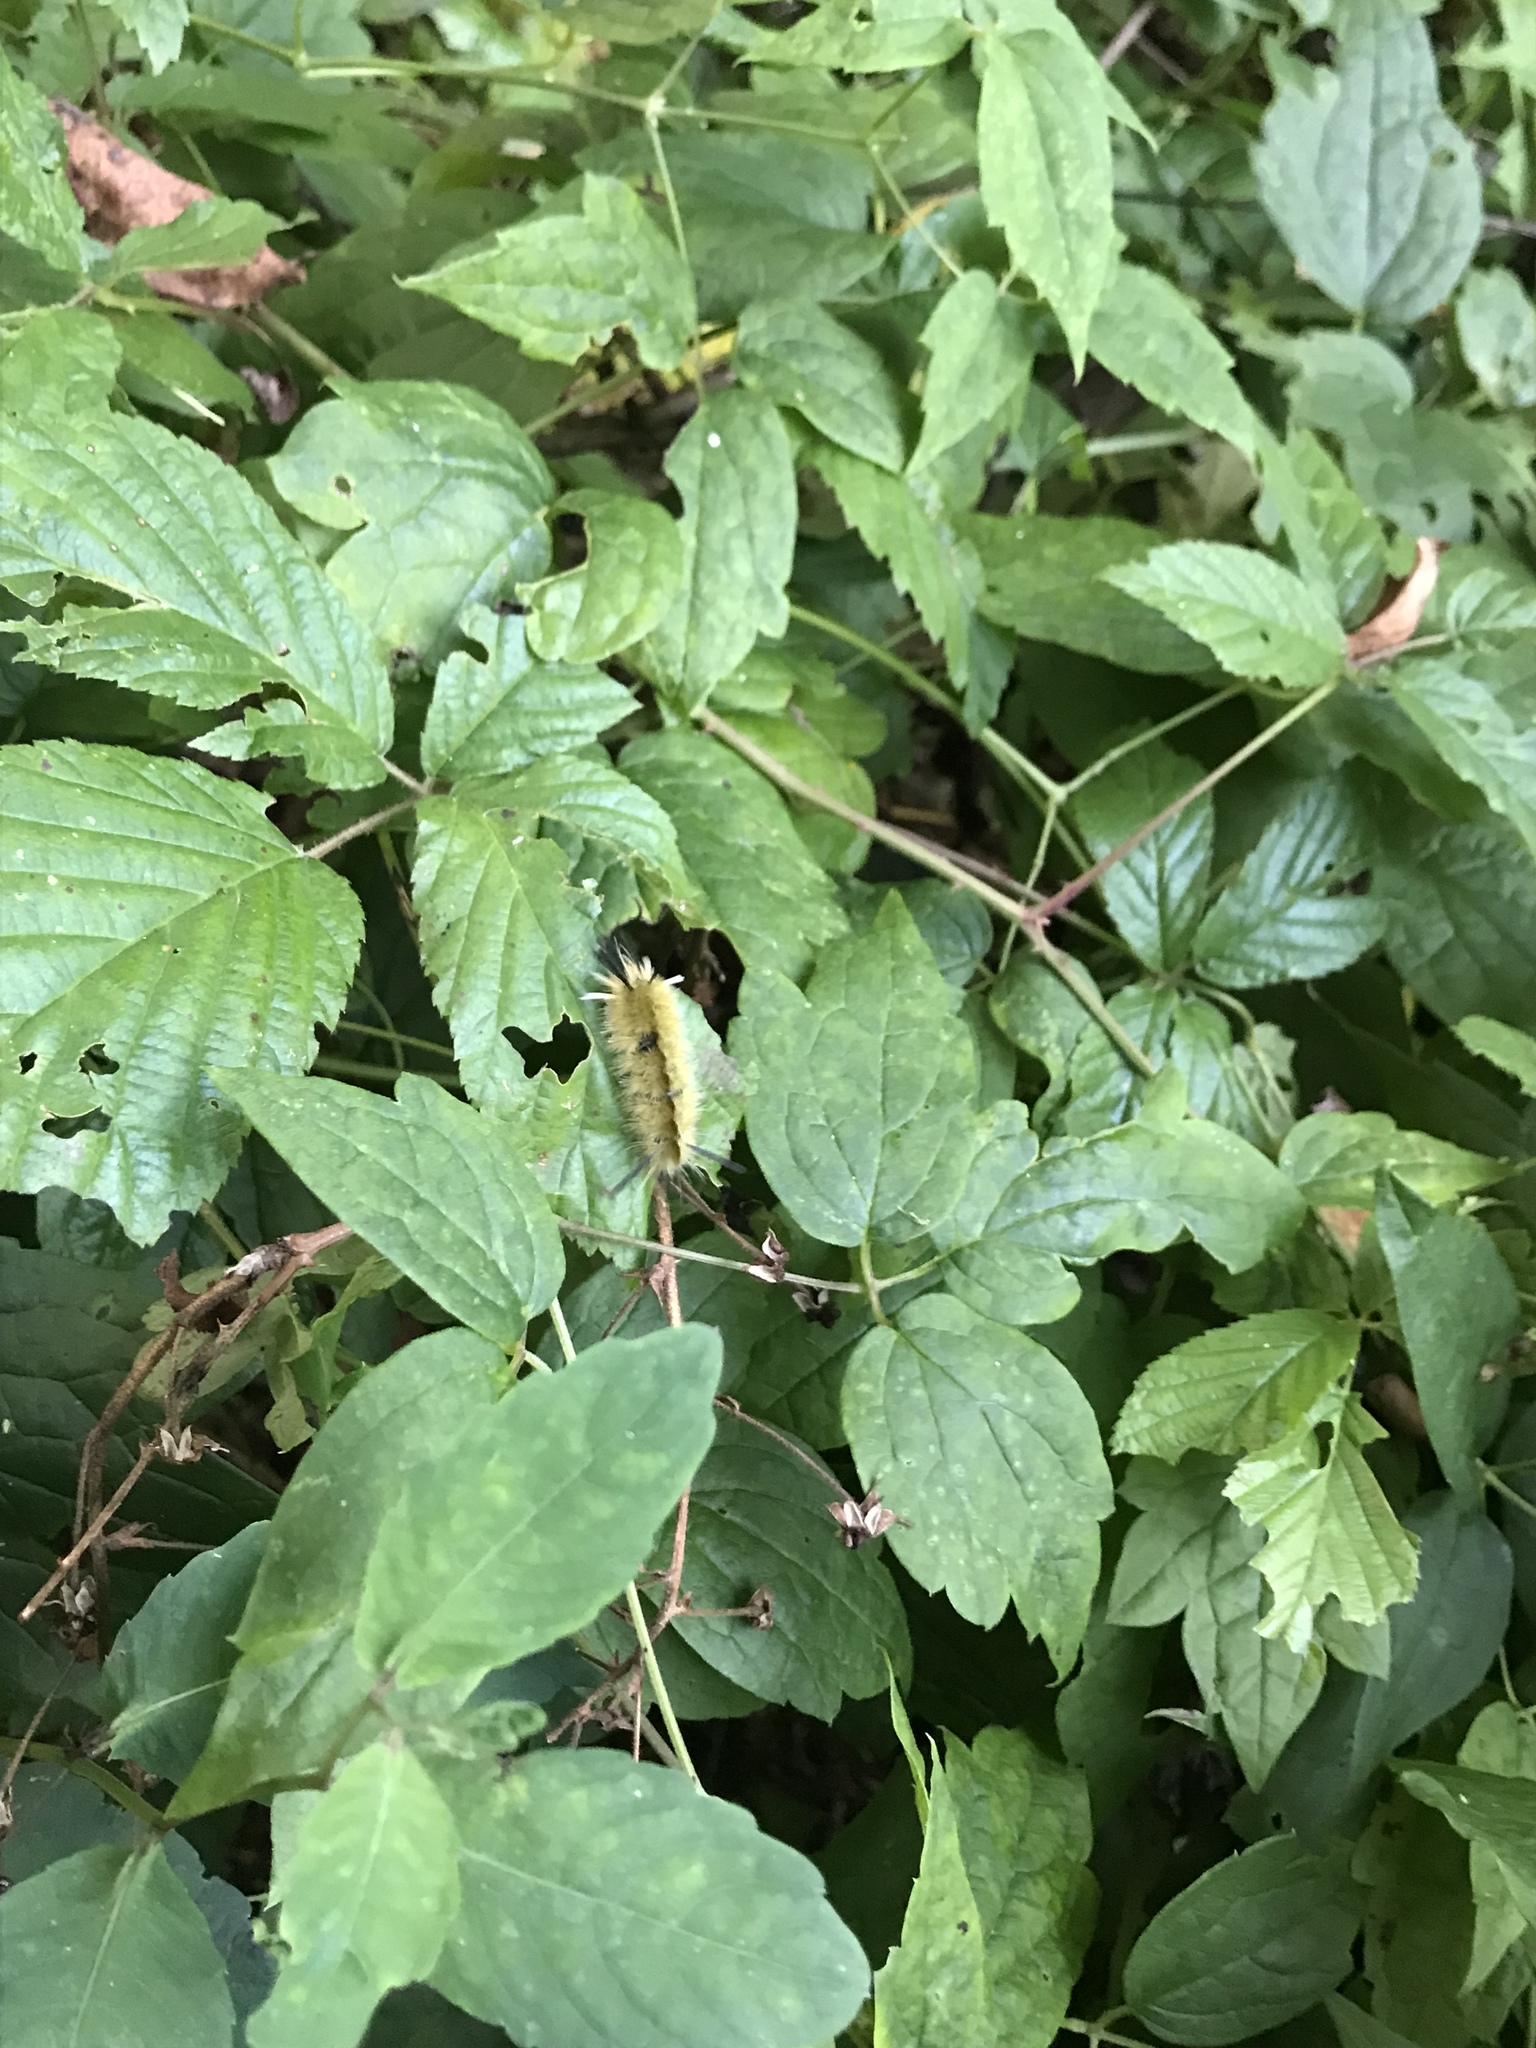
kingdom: Animalia
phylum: Arthropoda
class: Insecta
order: Lepidoptera
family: Erebidae
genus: Halysidota
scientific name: Halysidota tessellaris
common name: Banded tussock moth
